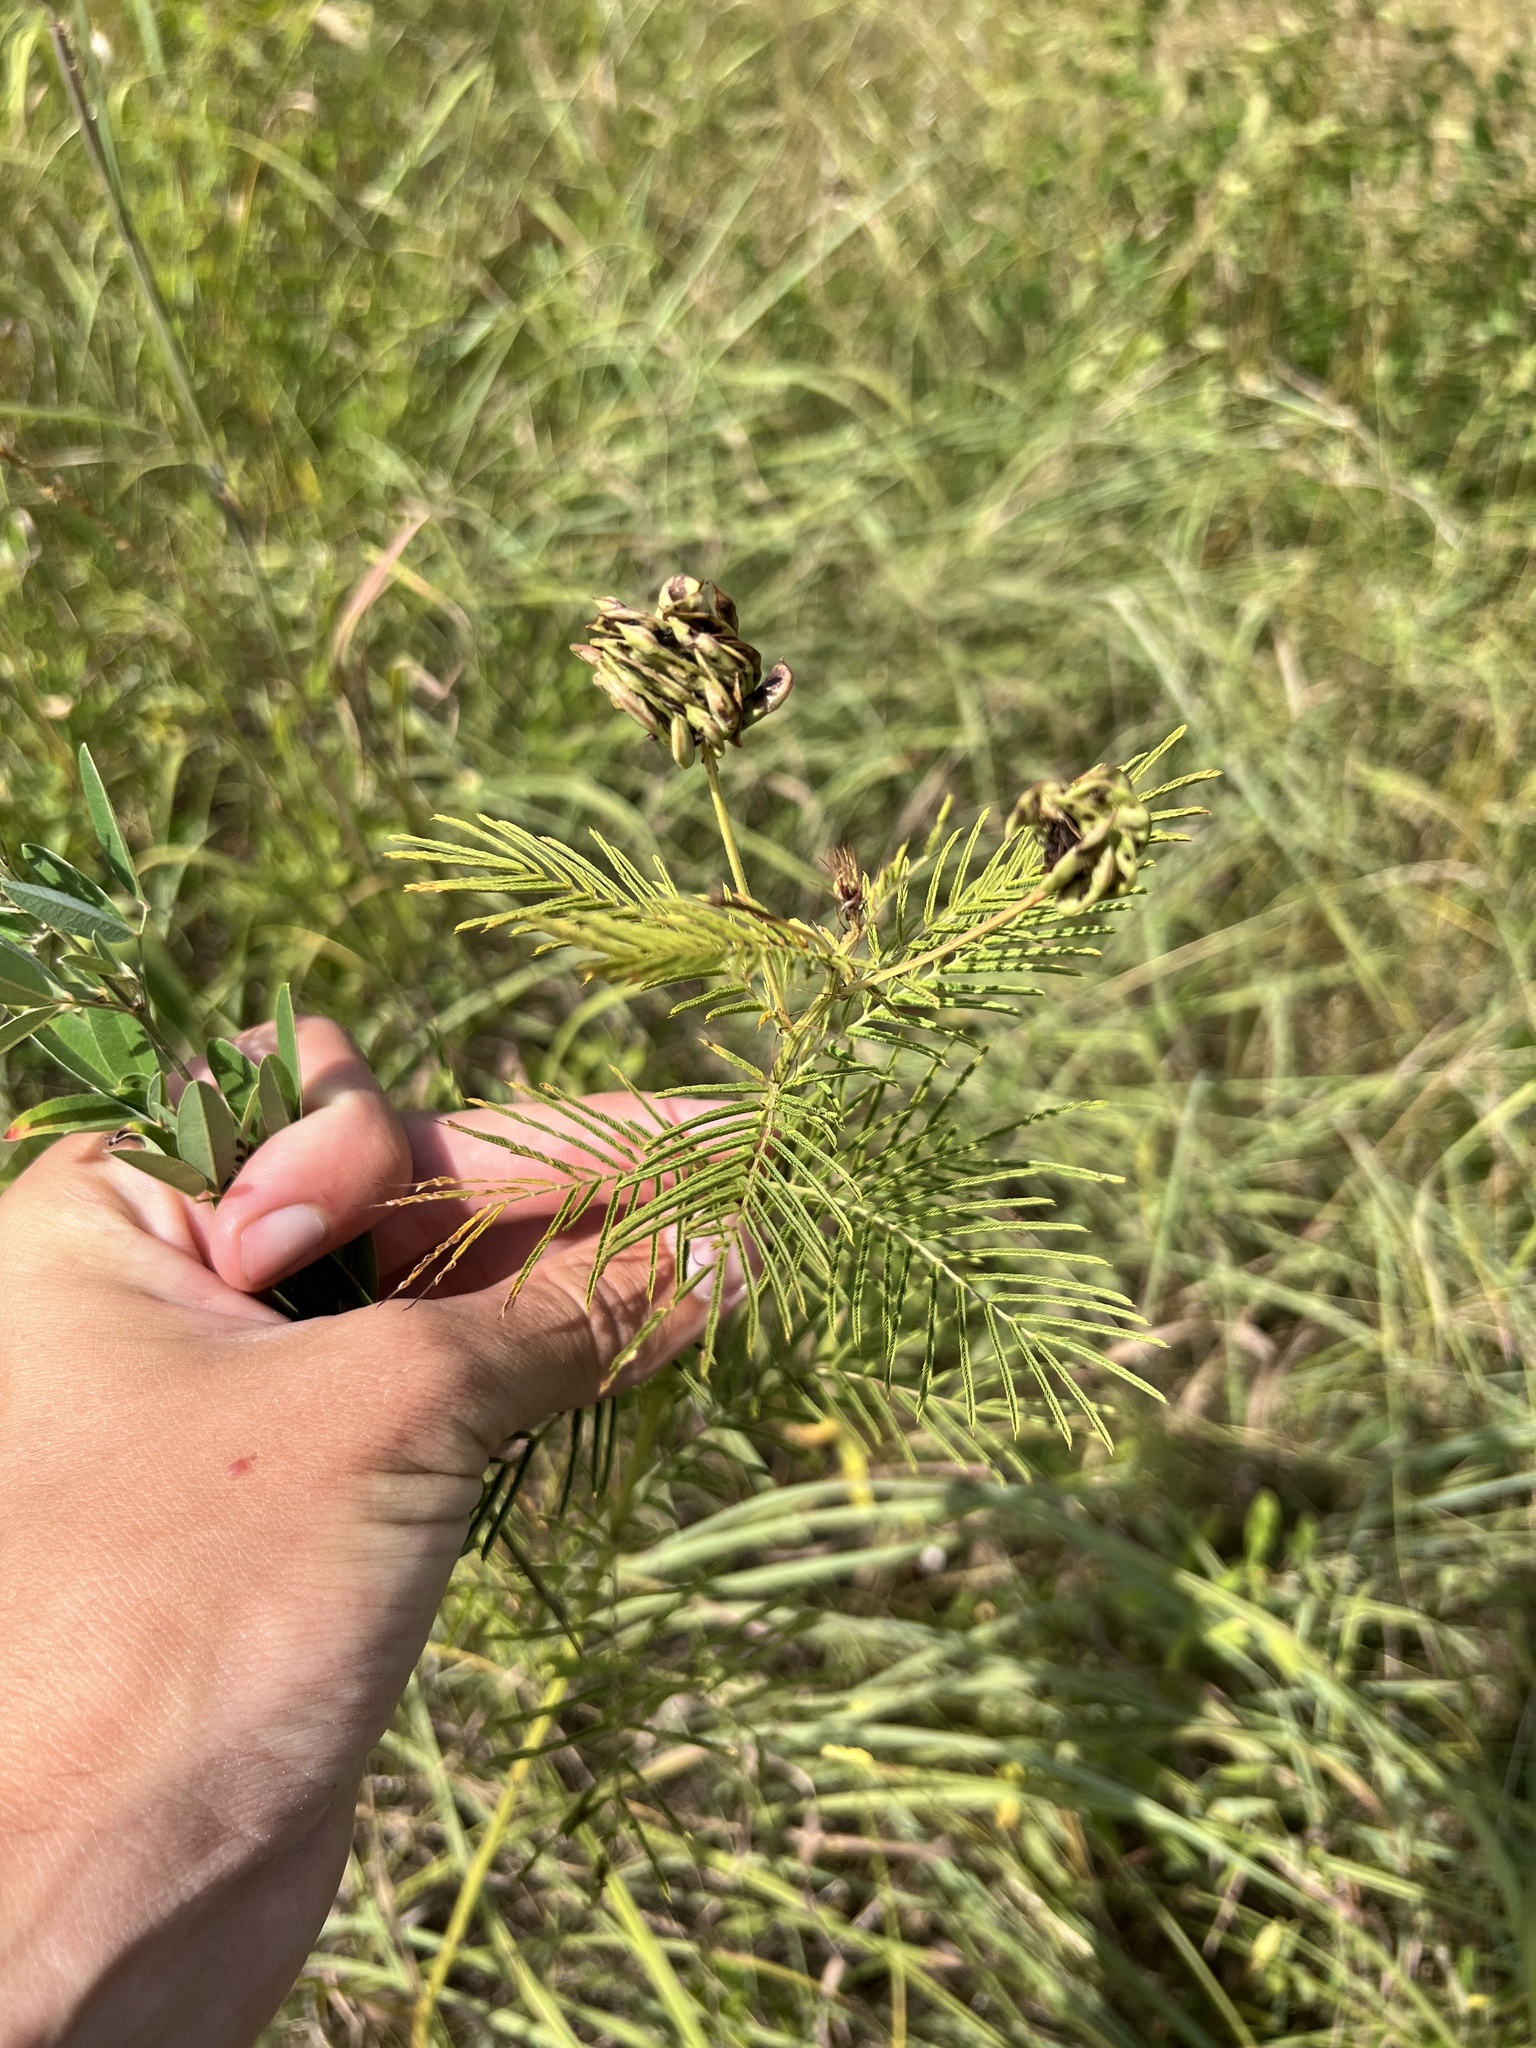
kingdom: Plantae
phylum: Tracheophyta
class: Magnoliopsida
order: Fabales
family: Fabaceae
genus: Desmanthus
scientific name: Desmanthus illinoensis
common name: Illinois bundle-flower
